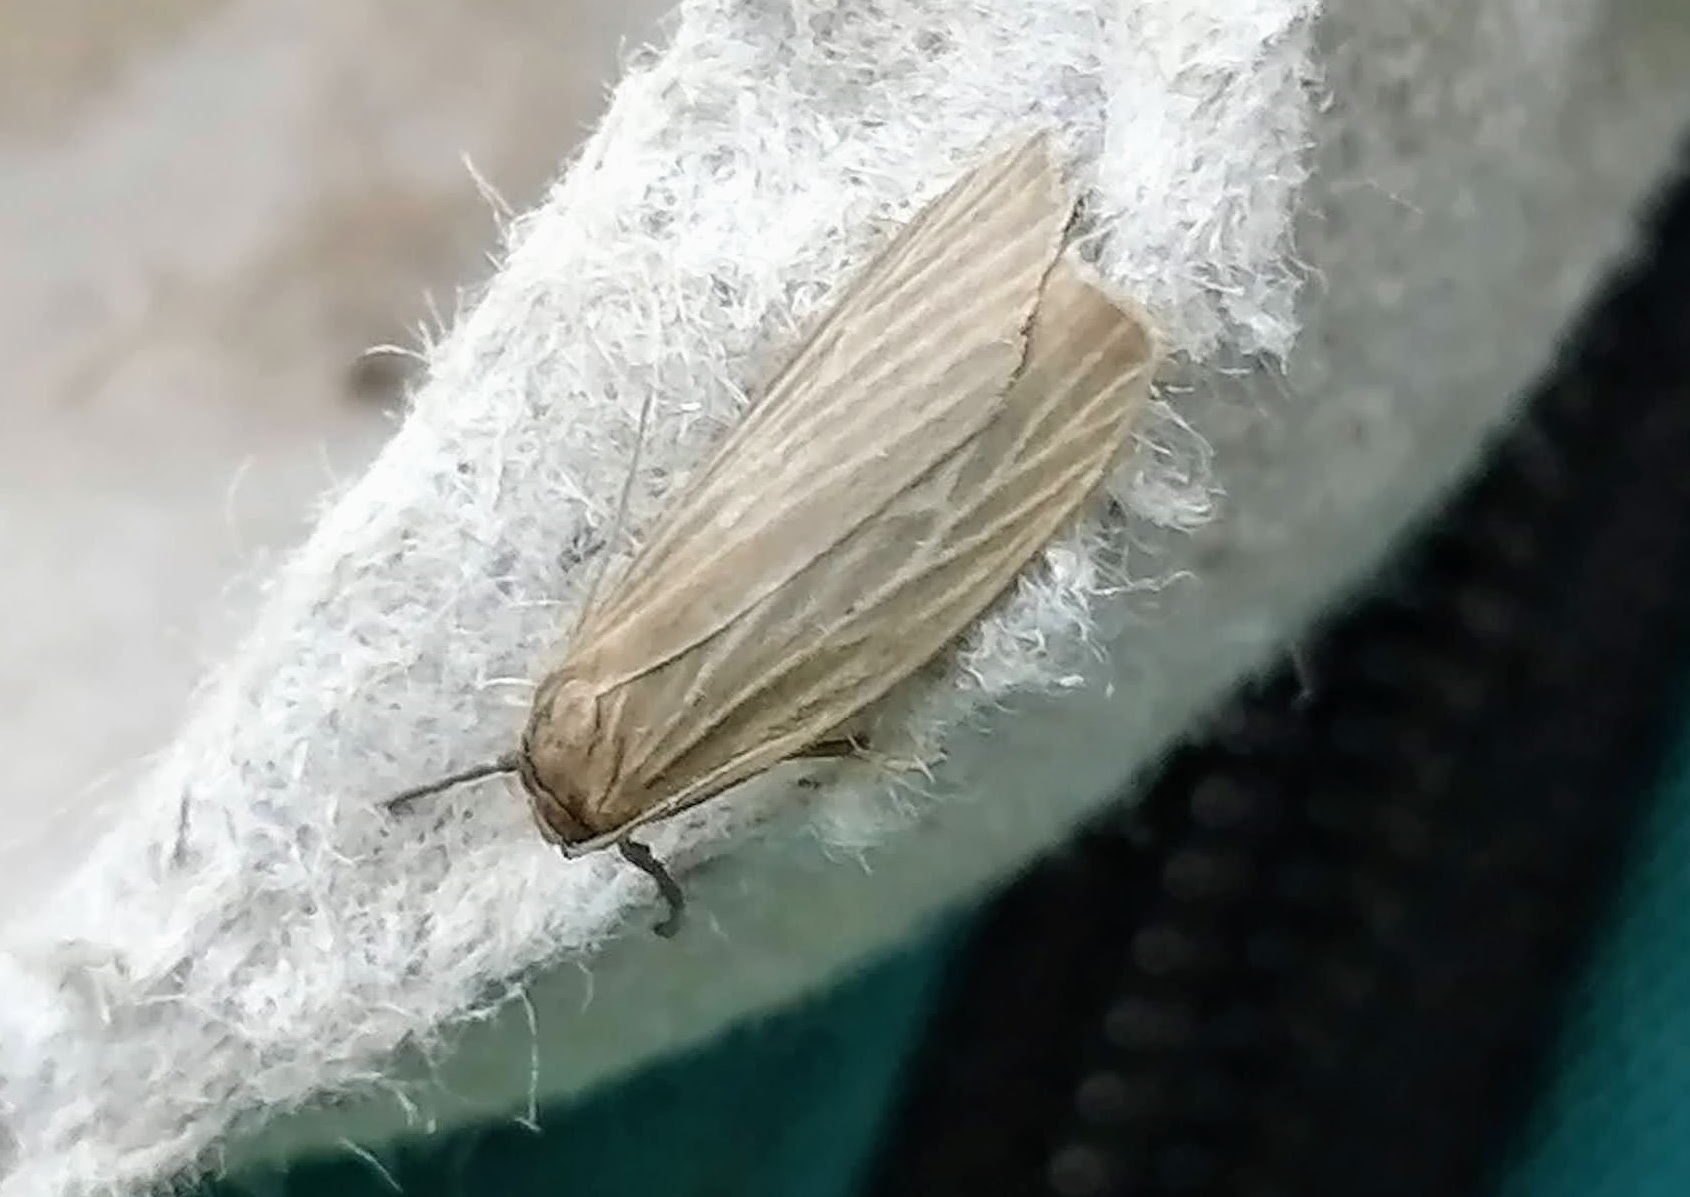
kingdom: Animalia
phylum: Arthropoda
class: Insecta
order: Lepidoptera
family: Erebidae
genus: Crambidia
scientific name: Crambidia pallida
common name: Pale lichen moth
